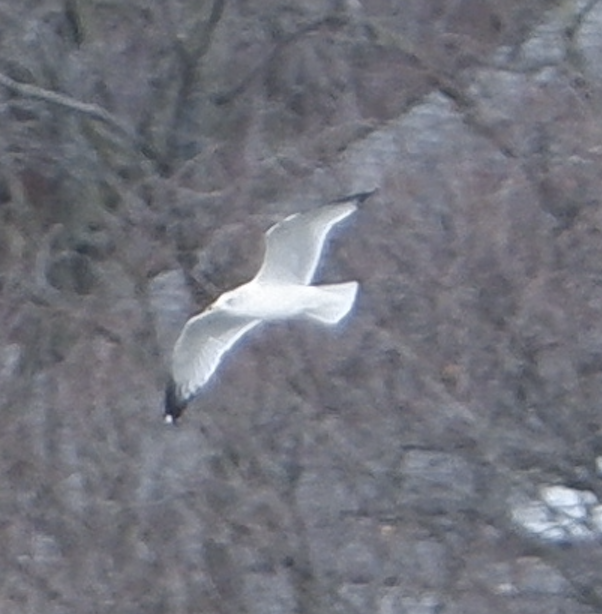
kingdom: Animalia
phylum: Chordata
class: Aves
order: Charadriiformes
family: Laridae
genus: Larus
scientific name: Larus delawarensis
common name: Ring-billed gull
